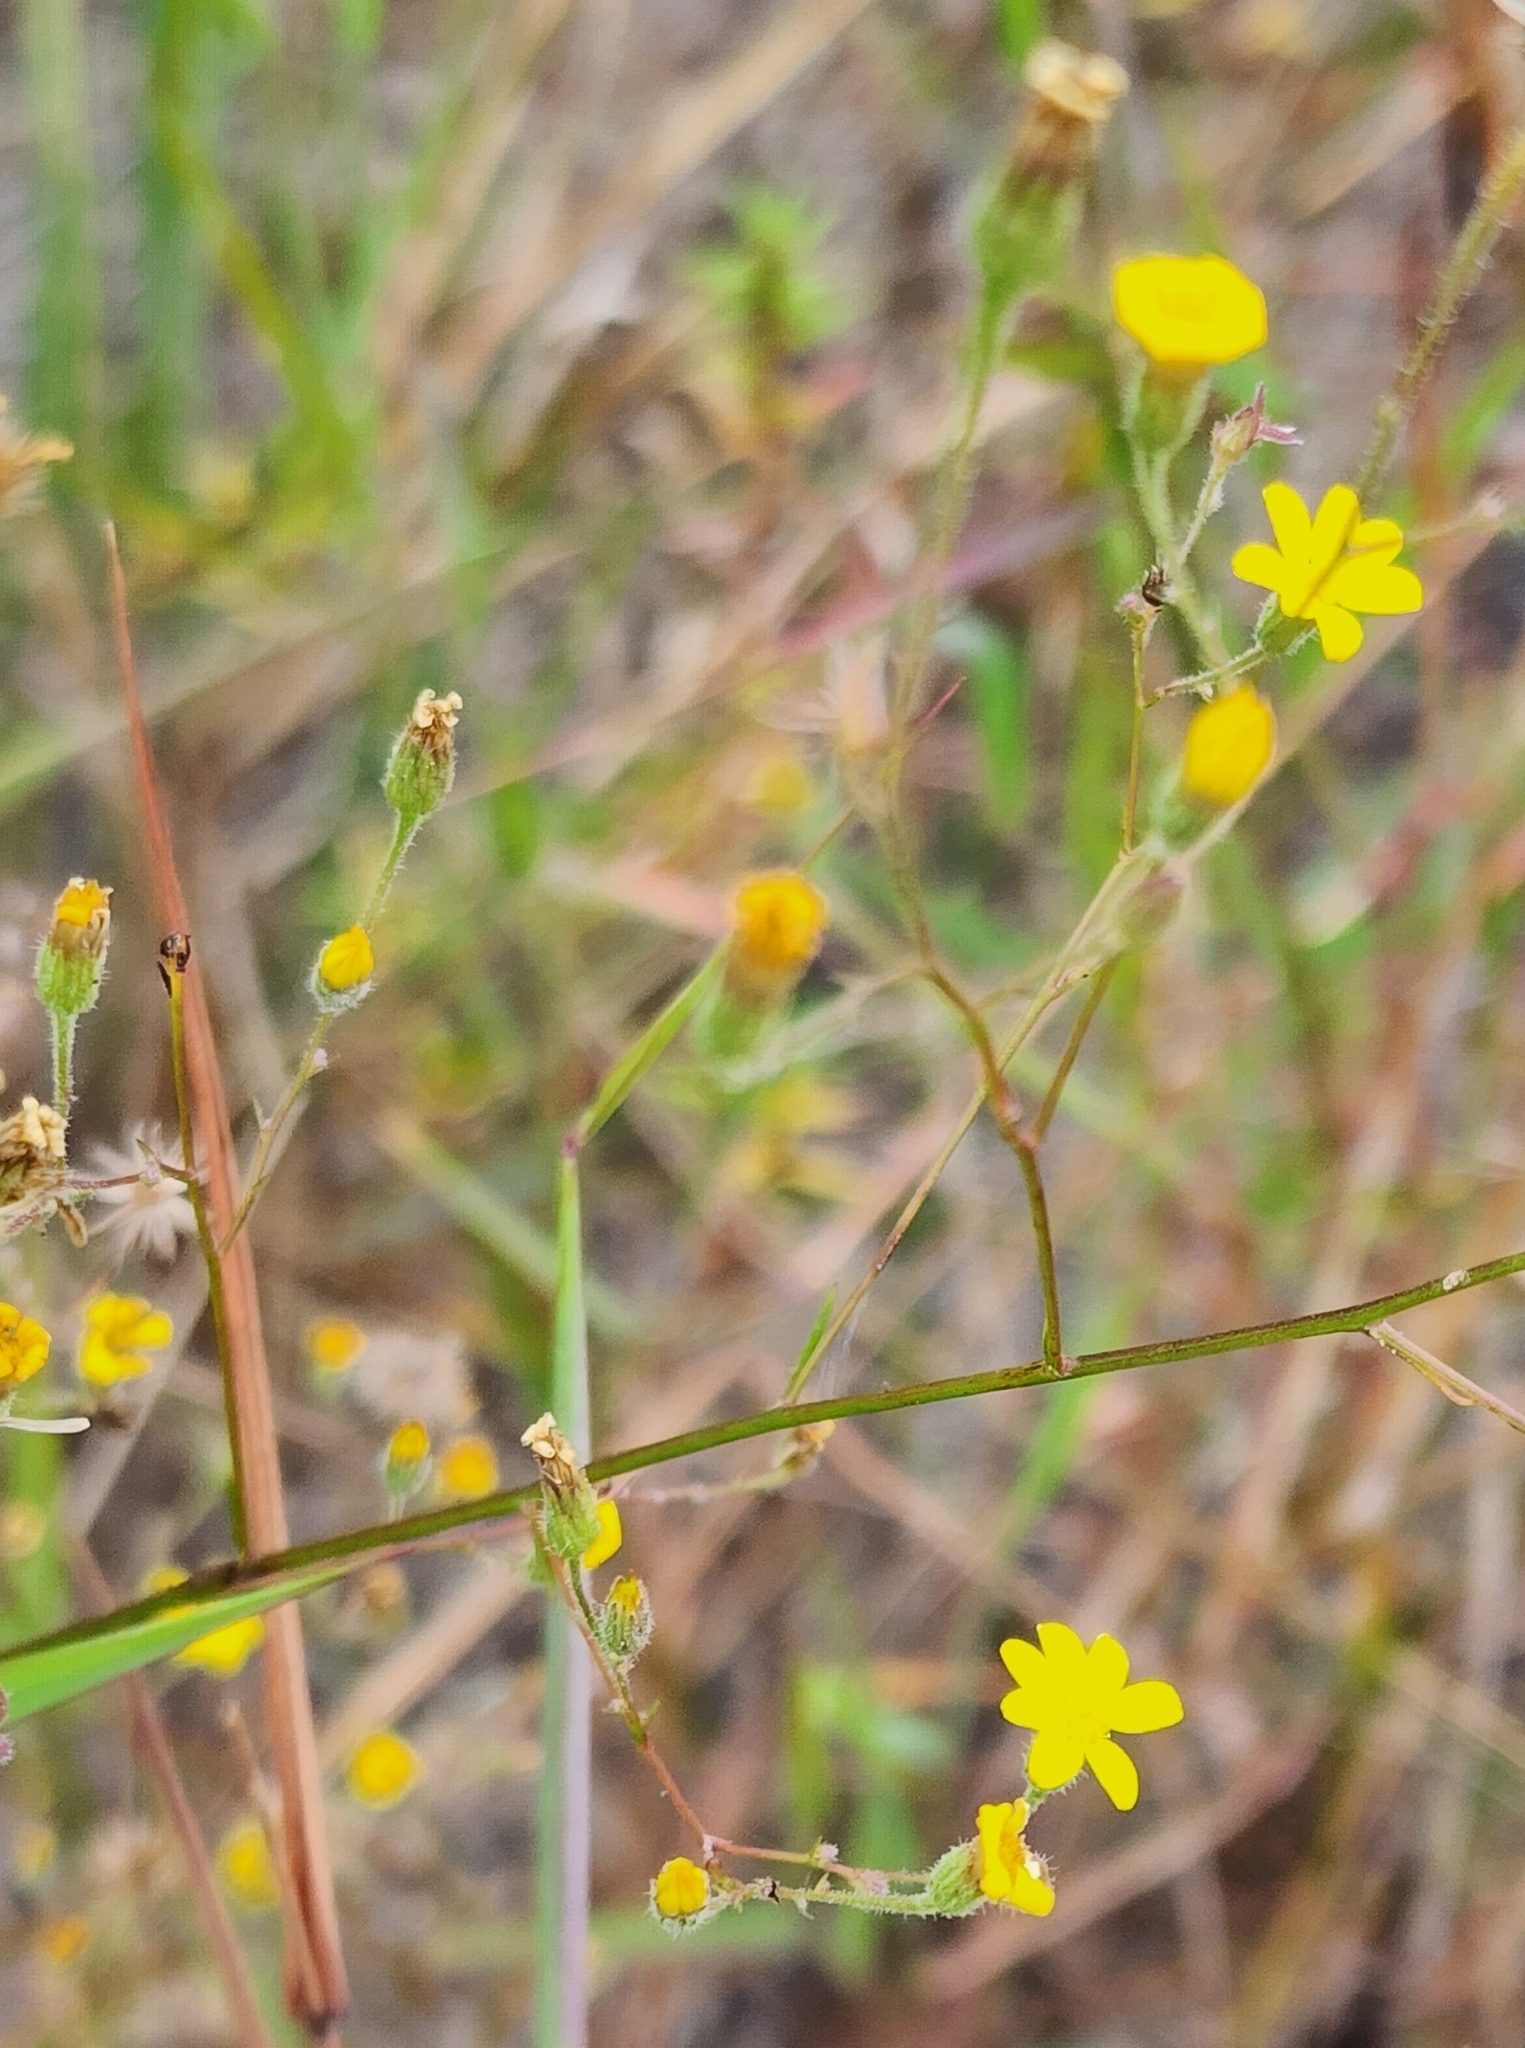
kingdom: Plantae
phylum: Tracheophyta
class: Magnoliopsida
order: Asterales
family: Asteraceae
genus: Croptilon
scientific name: Croptilon divaricatum
